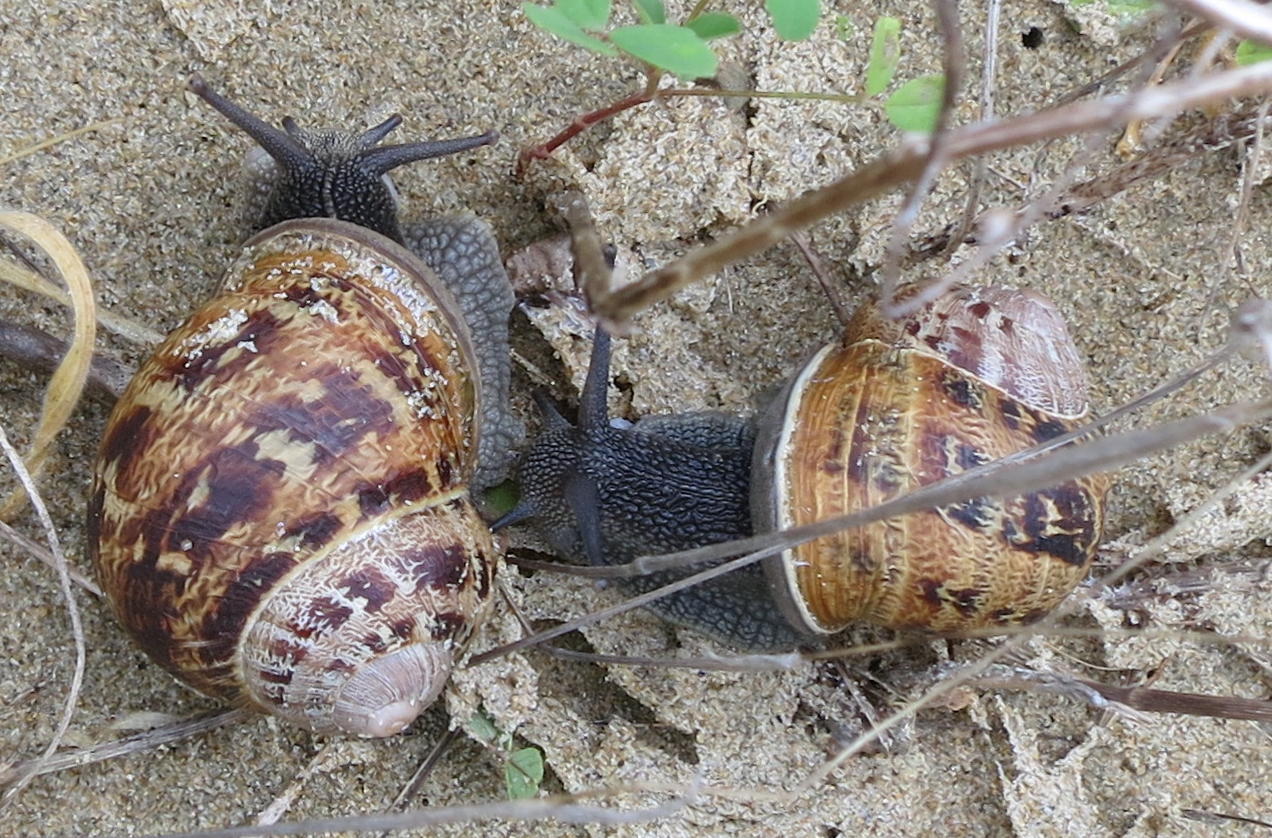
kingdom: Animalia
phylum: Mollusca
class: Gastropoda
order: Stylommatophora
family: Helicidae
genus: Cornu
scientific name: Cornu aspersum
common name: Brown garden snail
